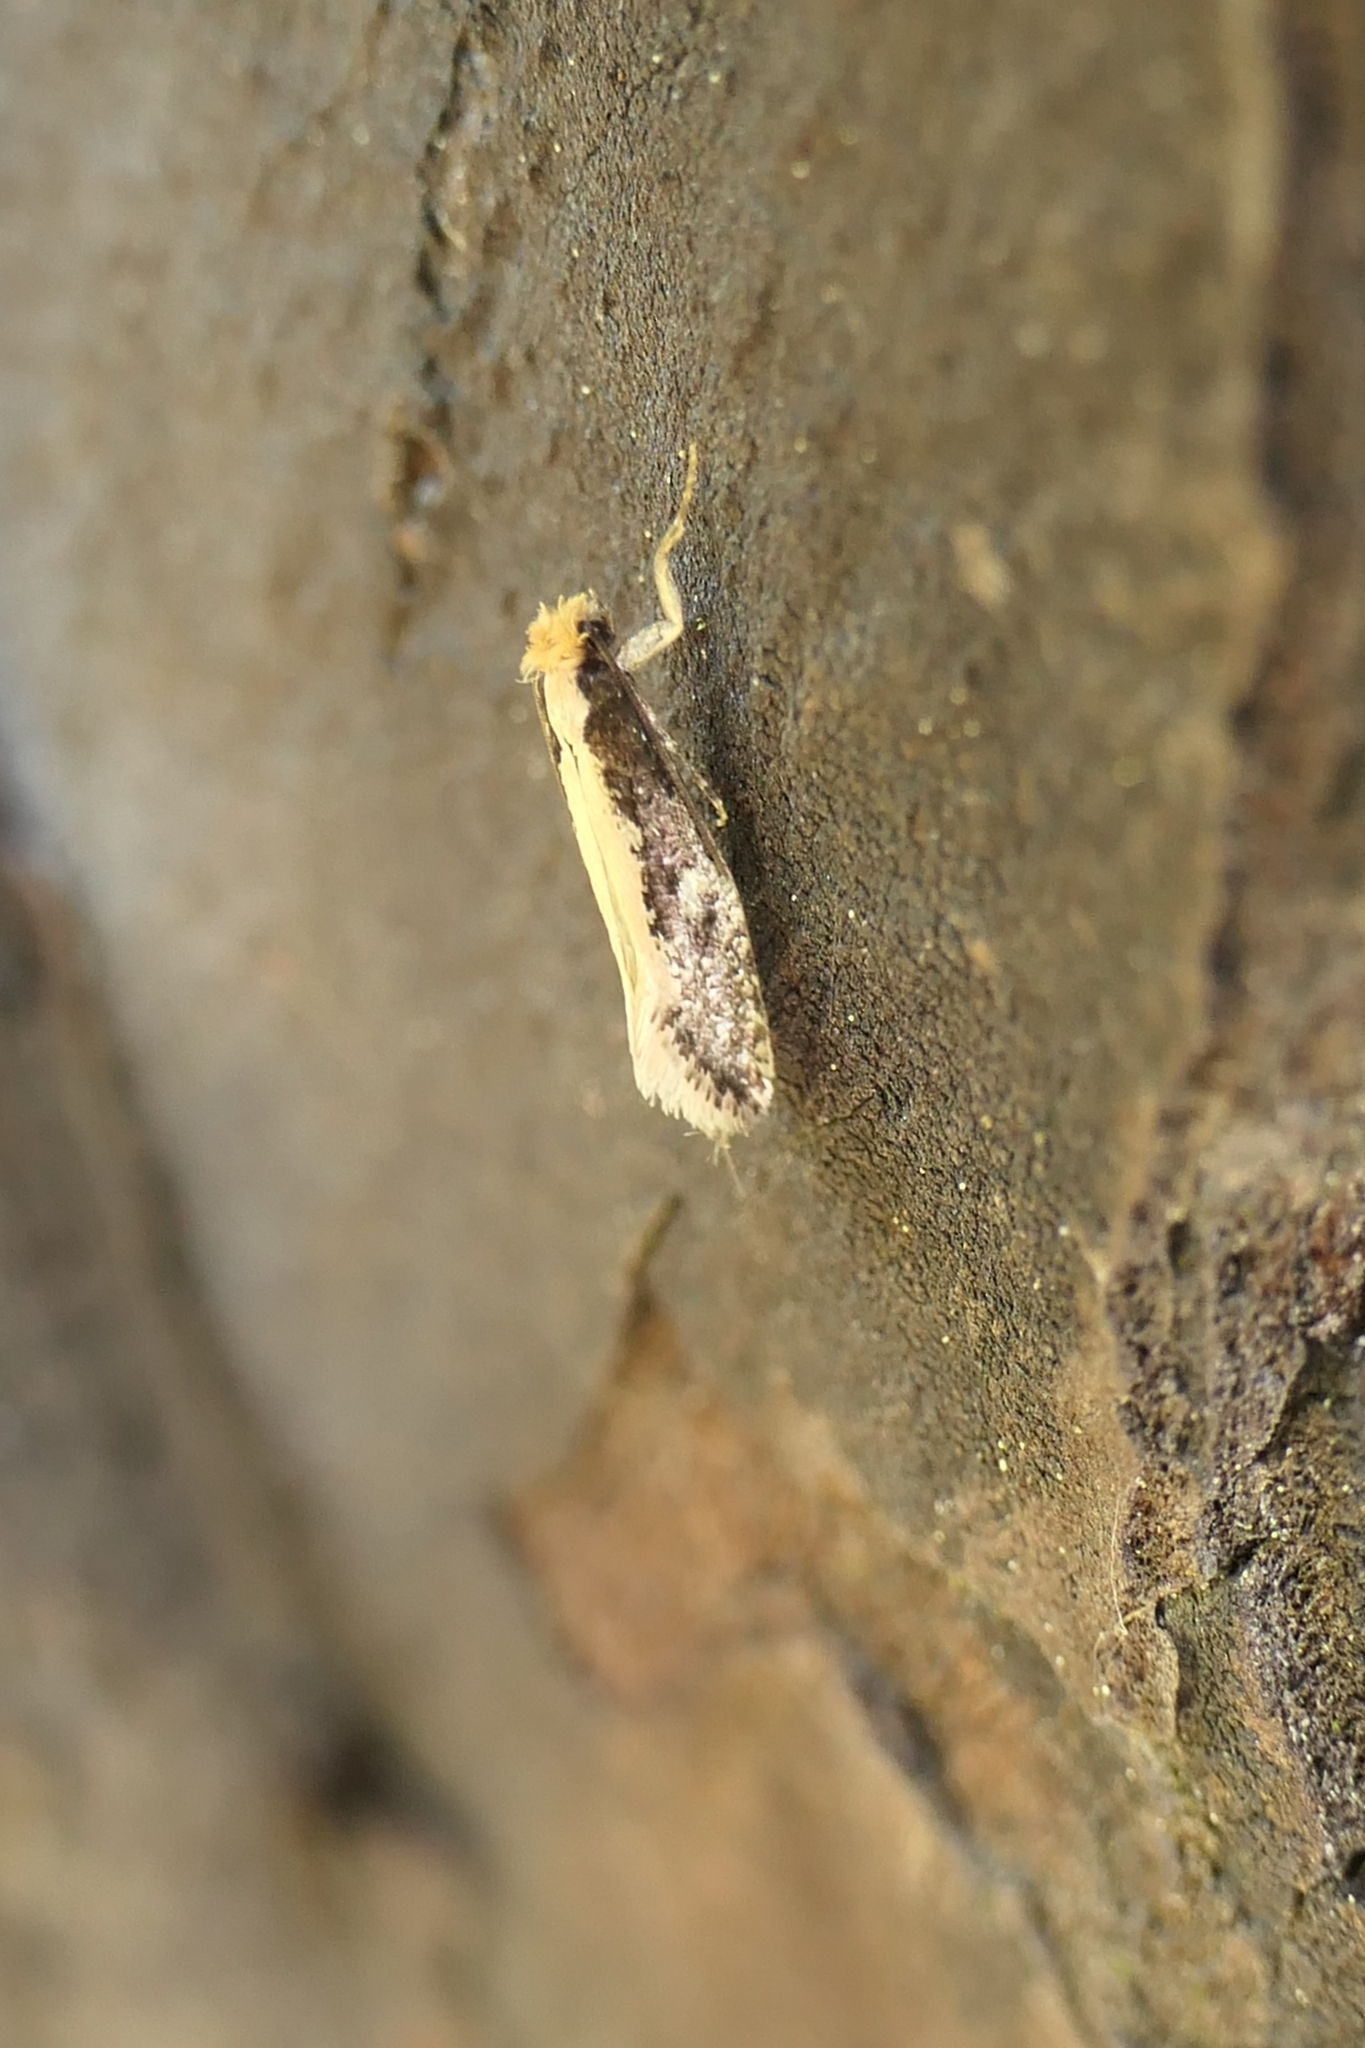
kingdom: Animalia
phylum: Arthropoda
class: Insecta
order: Lepidoptera
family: Tineidae
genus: Monopis
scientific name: Monopis crocicapitella
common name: Moth
